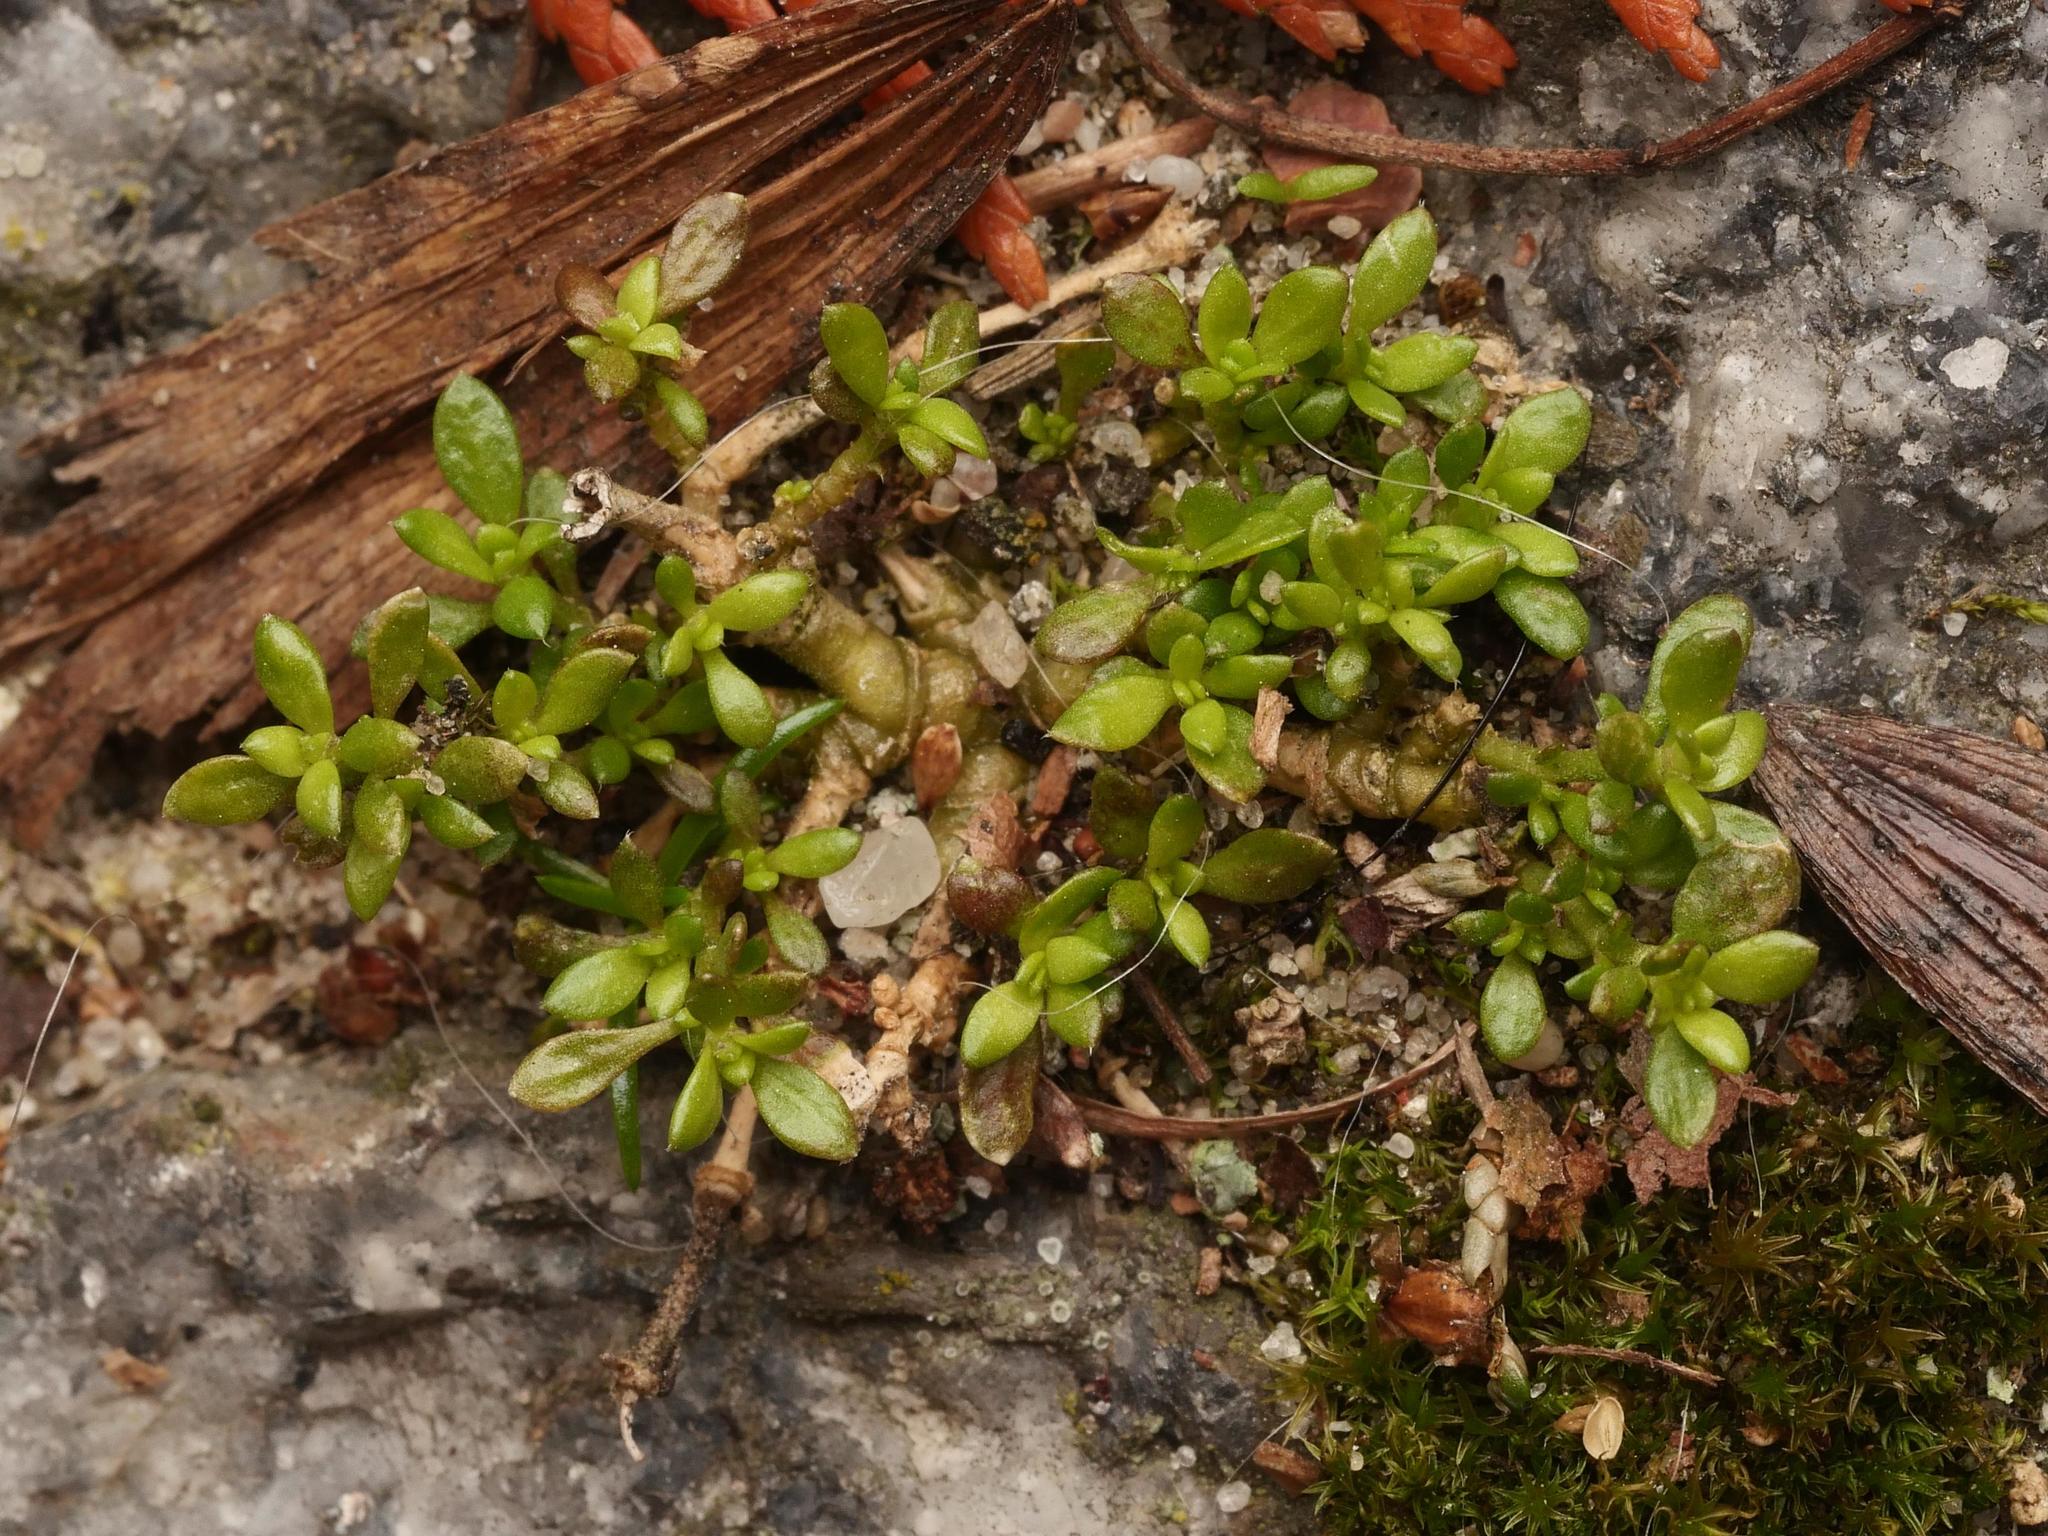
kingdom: Plantae
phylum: Tracheophyta
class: Magnoliopsida
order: Caryophyllales
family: Caryophyllaceae
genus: Herniaria
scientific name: Herniaria glabra
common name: Smooth rupturewort
